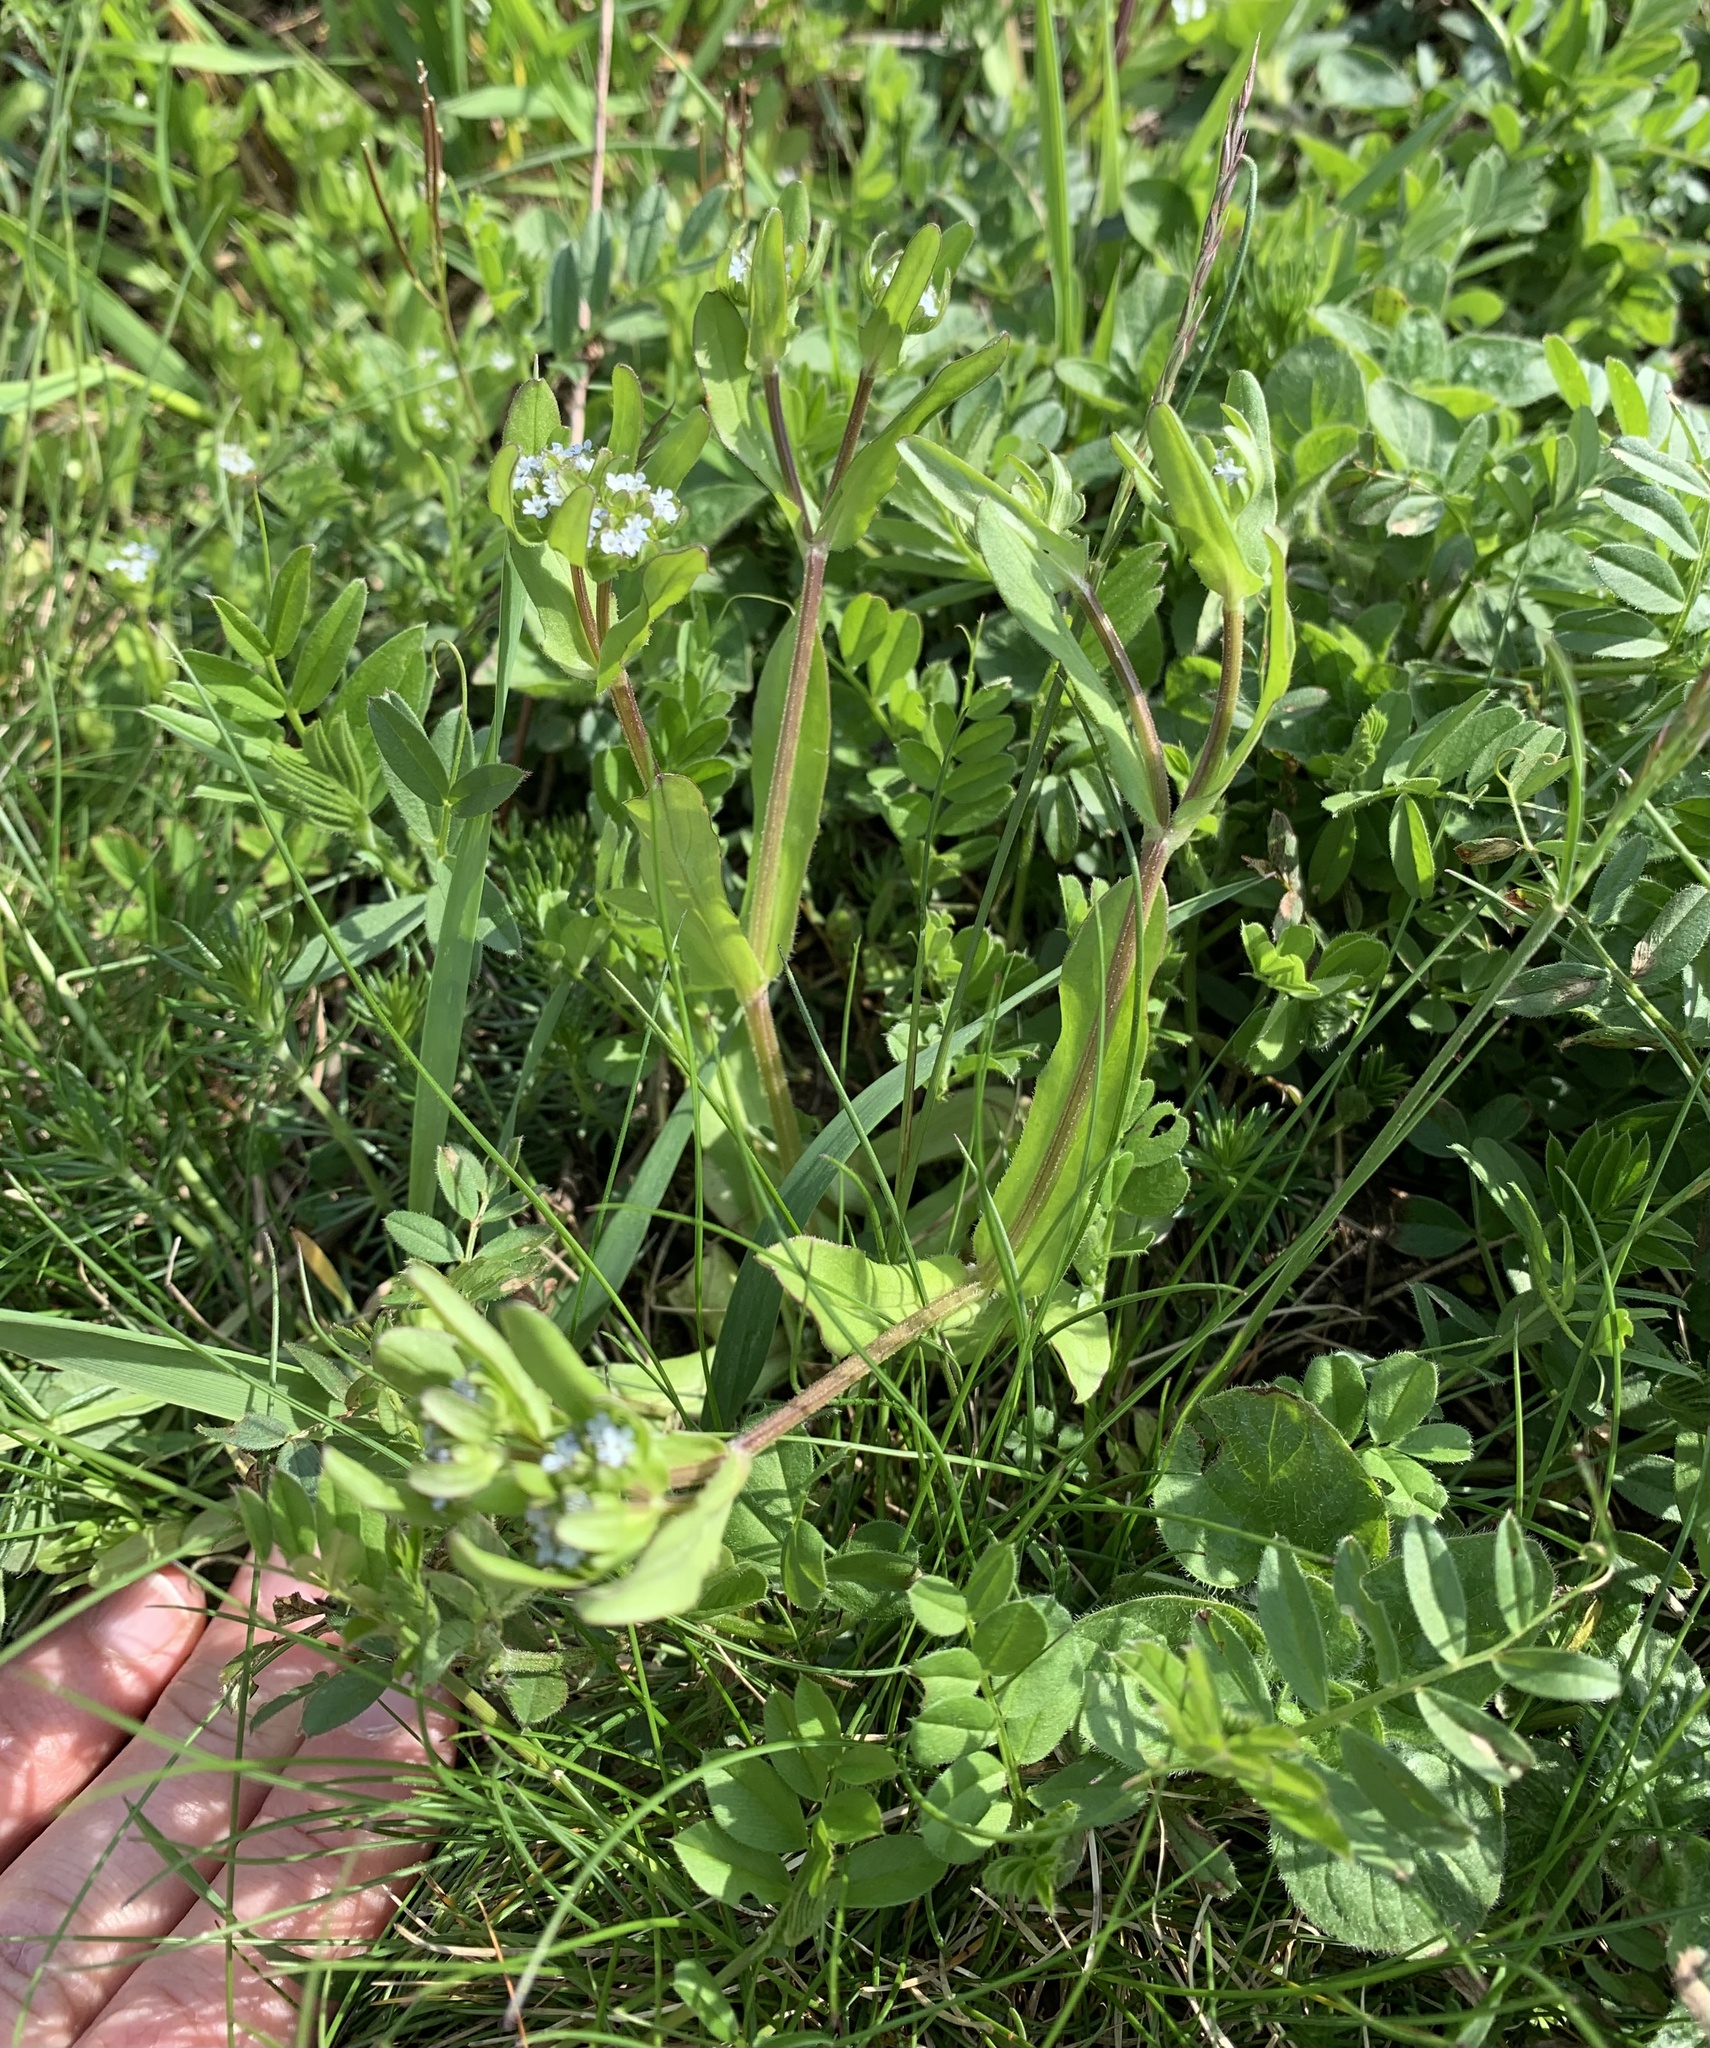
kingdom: Plantae
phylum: Tracheophyta
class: Magnoliopsida
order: Dipsacales
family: Caprifoliaceae
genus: Valerianella
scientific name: Valerianella locusta
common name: Common cornsalad
